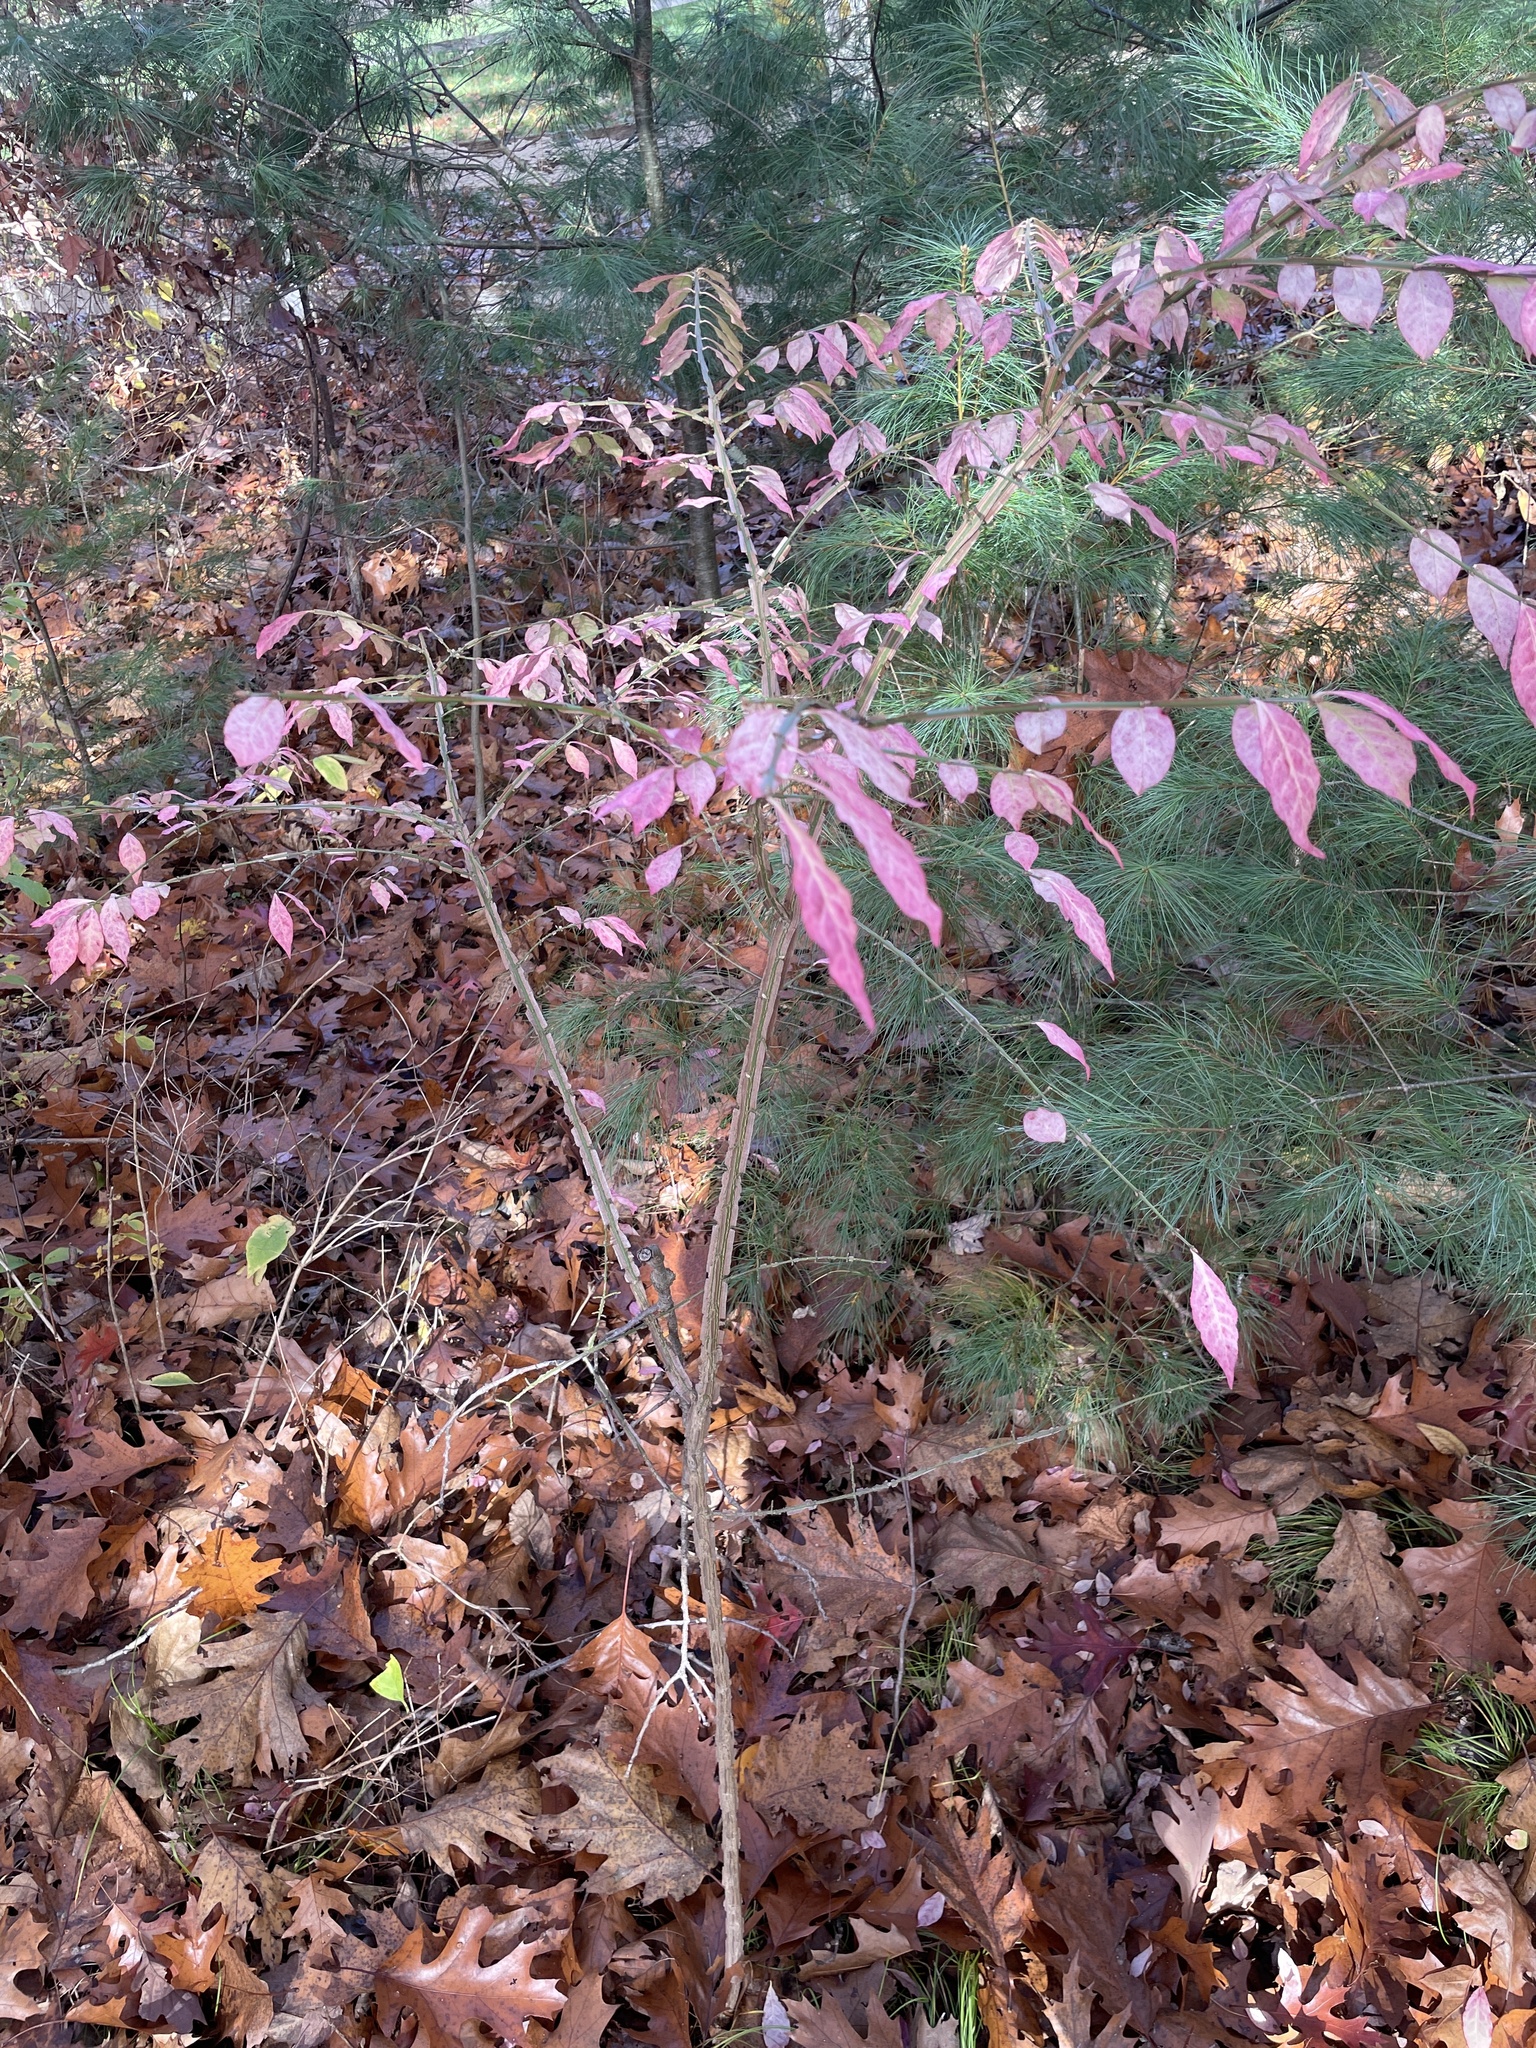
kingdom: Plantae
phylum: Tracheophyta
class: Magnoliopsida
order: Celastrales
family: Celastraceae
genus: Euonymus
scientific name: Euonymus alatus
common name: Winged euonymus
